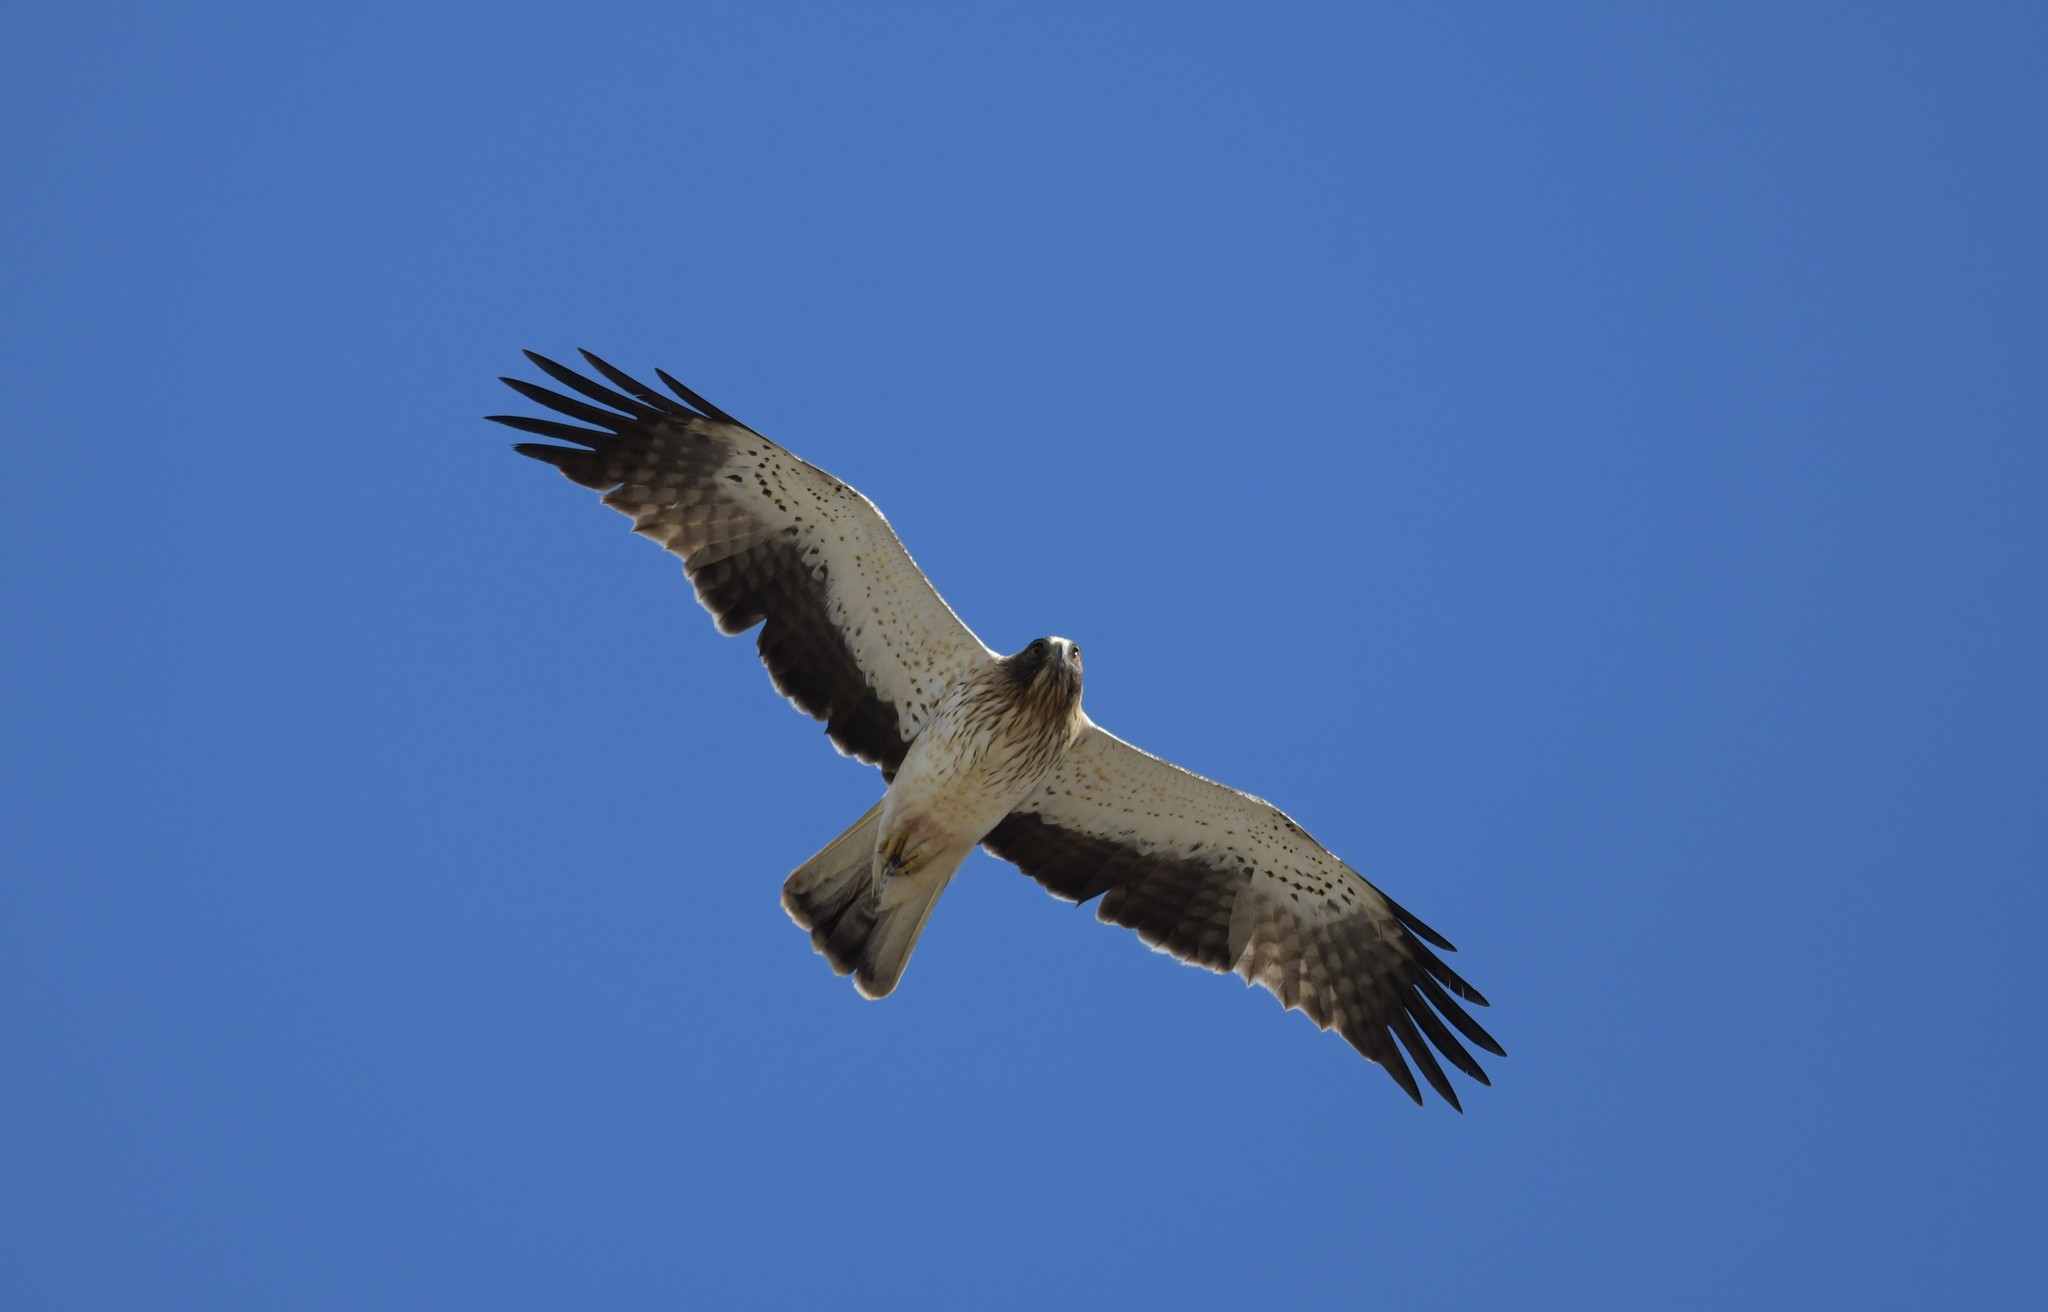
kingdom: Animalia
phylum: Chordata
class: Aves
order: Accipitriformes
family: Accipitridae
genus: Hieraaetus
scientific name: Hieraaetus pennatus
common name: Booted eagle
